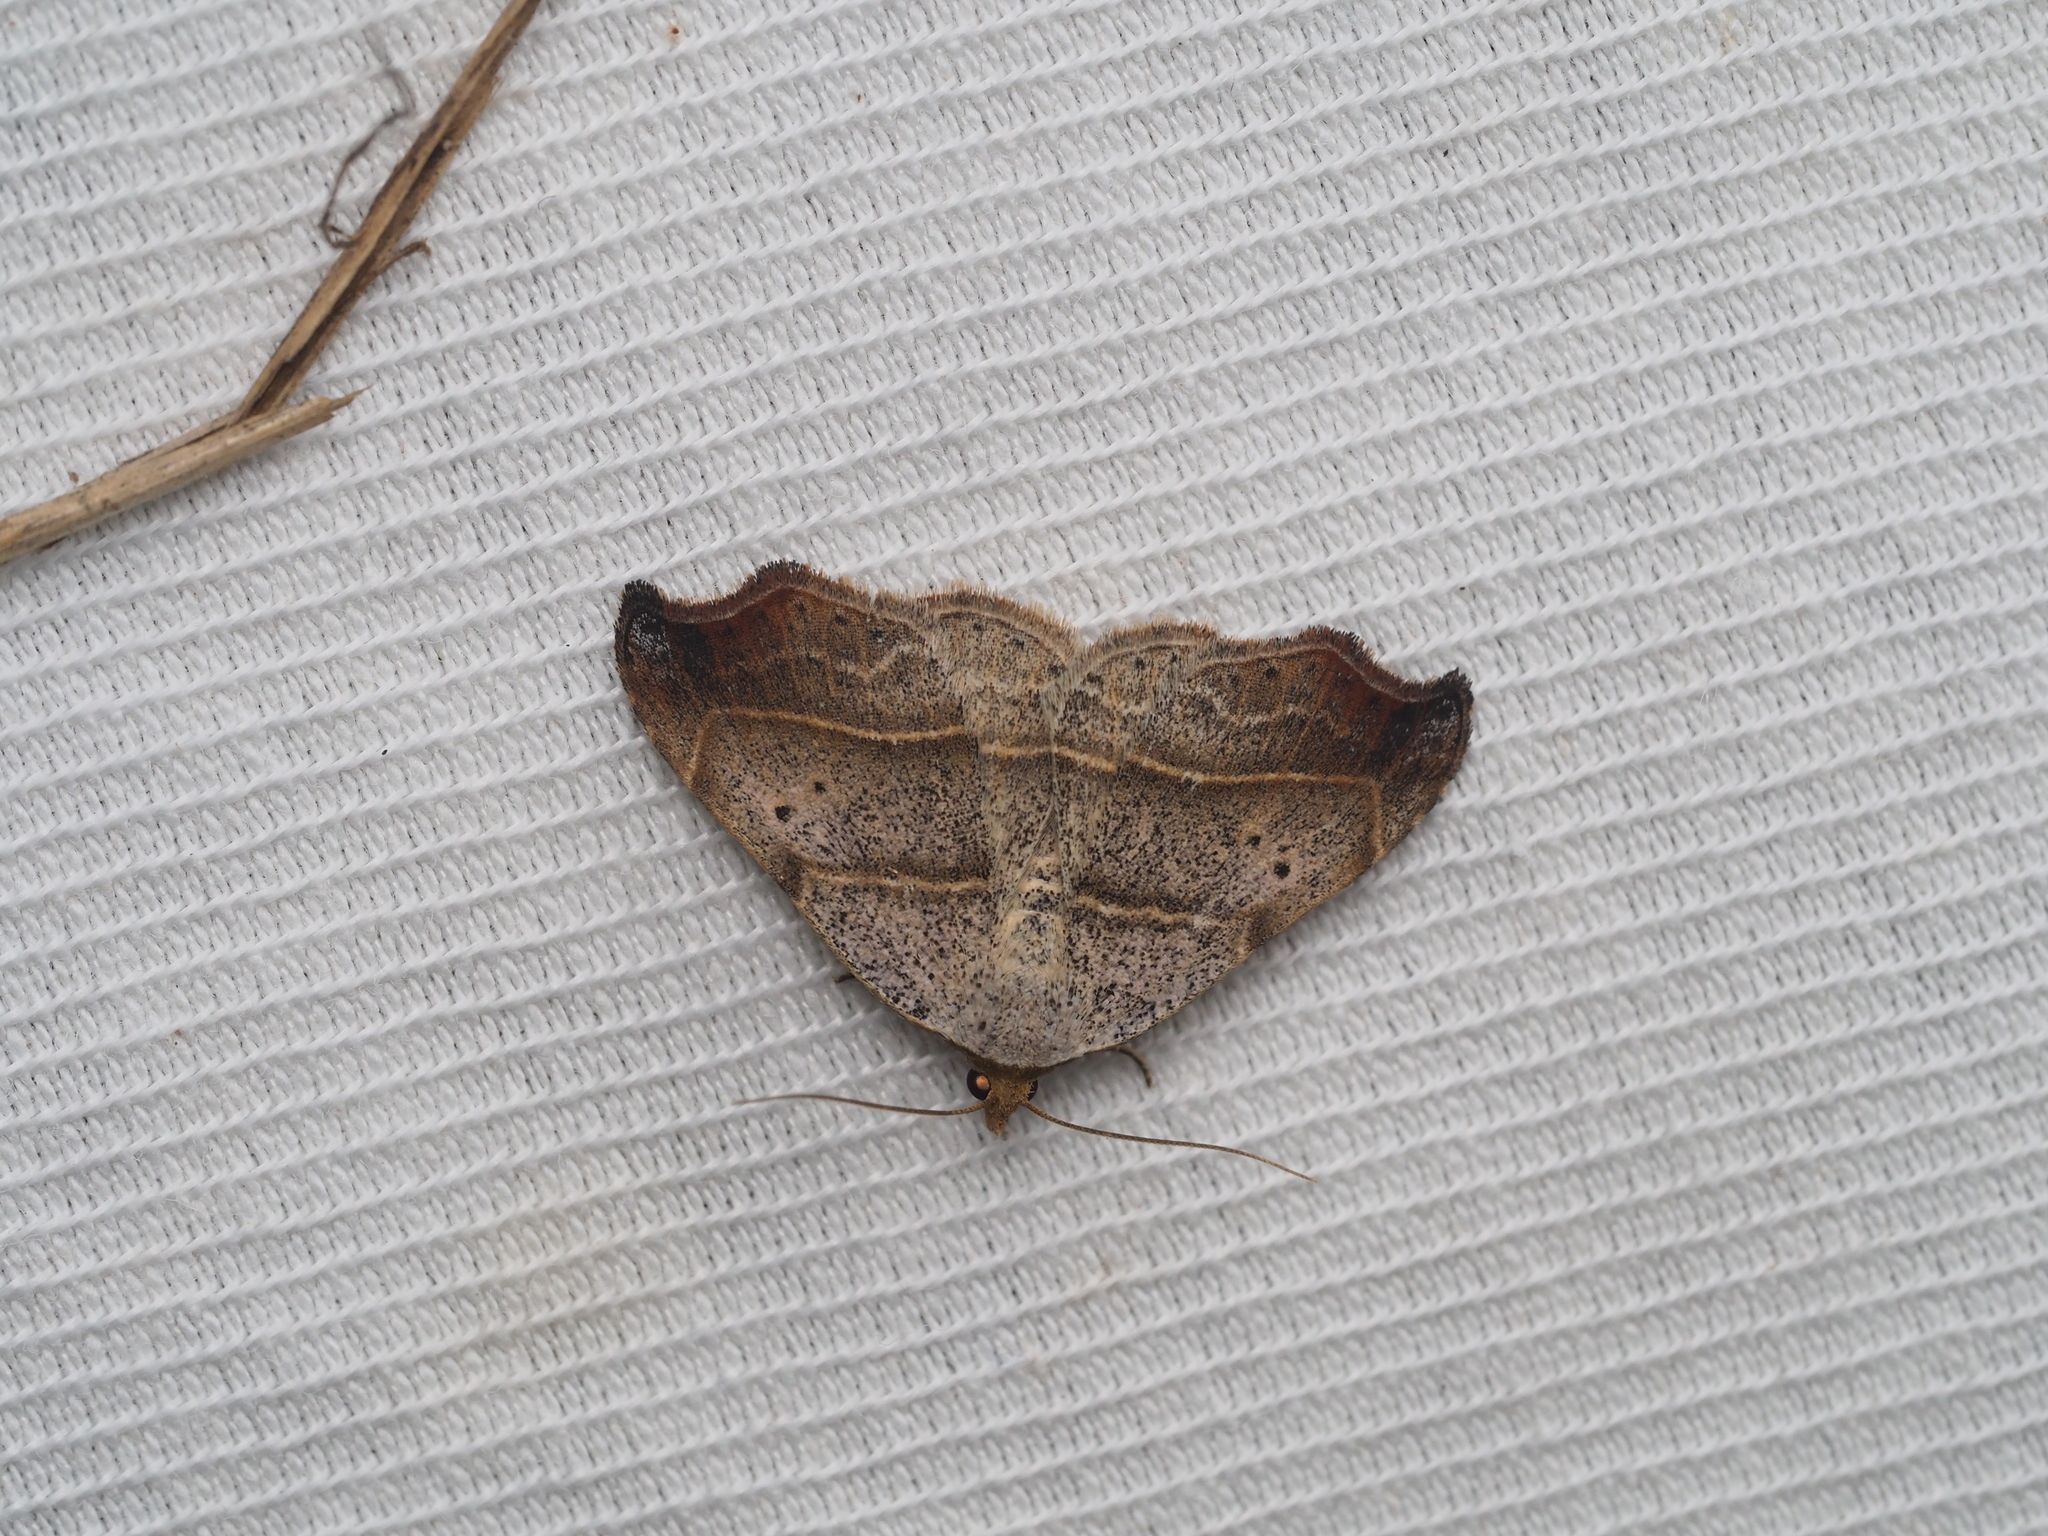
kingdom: Animalia
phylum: Arthropoda
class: Insecta
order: Lepidoptera
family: Erebidae
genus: Laspeyria
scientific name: Laspeyria flexula
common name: Beautiful hook-tip
